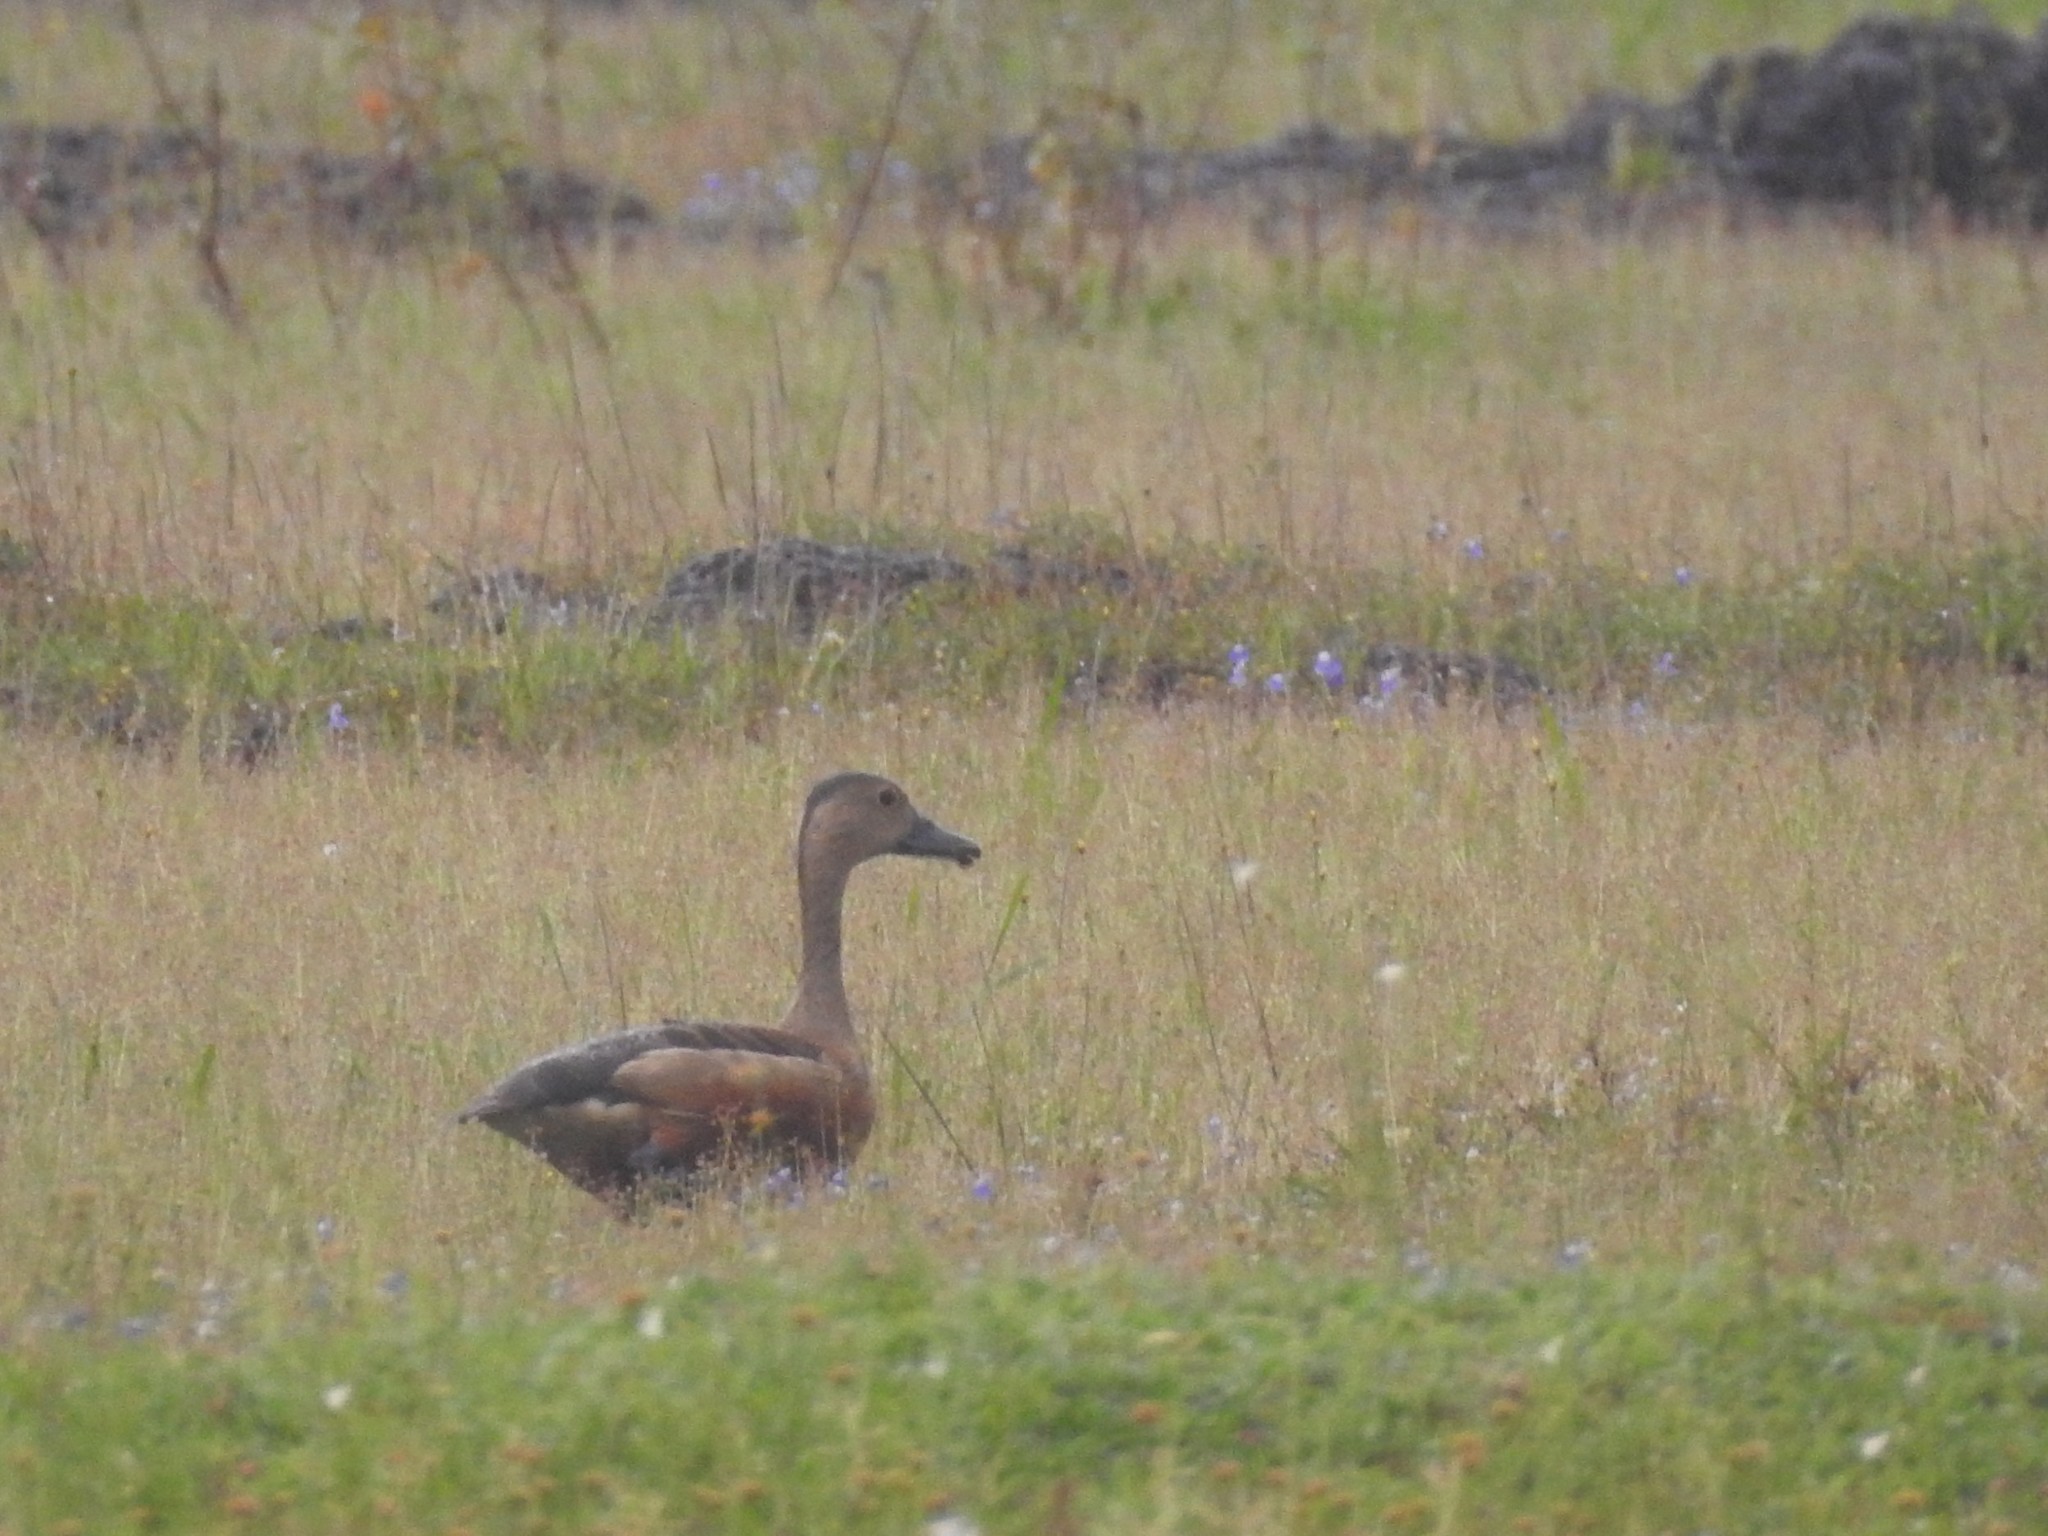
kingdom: Animalia
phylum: Chordata
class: Aves
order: Anseriformes
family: Anatidae
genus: Dendrocygna
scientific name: Dendrocygna javanica
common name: Lesser whistling-duck
